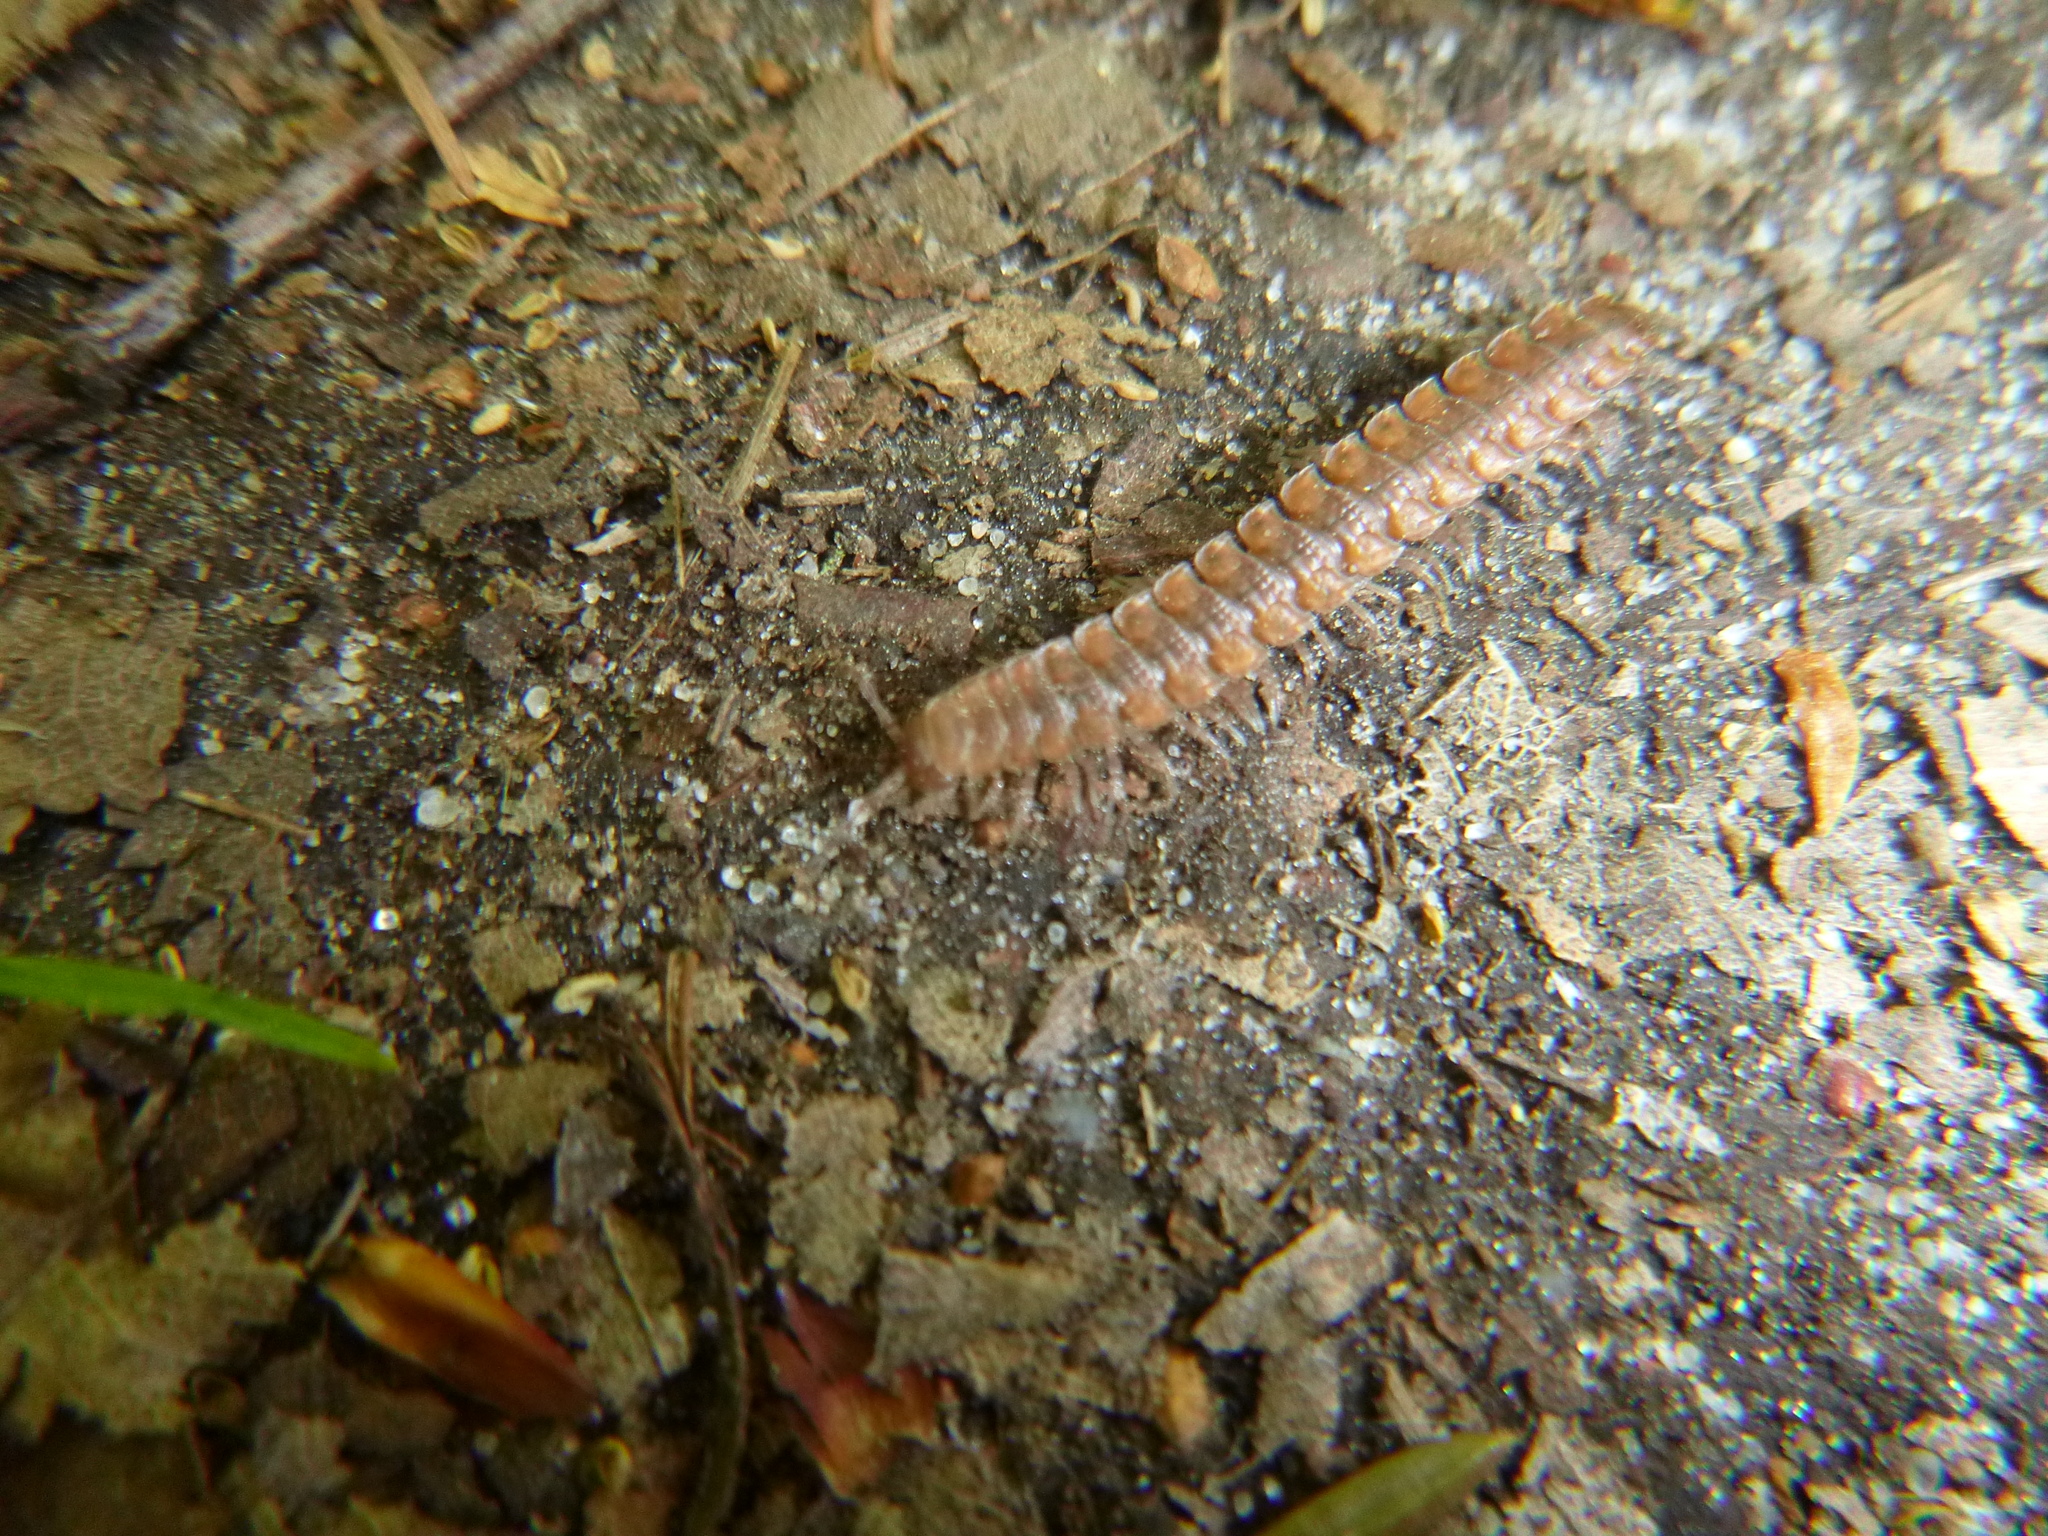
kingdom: Animalia
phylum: Arthropoda
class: Diplopoda
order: Polydesmida
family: Polydesmidae
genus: Polydesmus
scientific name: Polydesmus complanatus
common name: Flat-backed millipede
